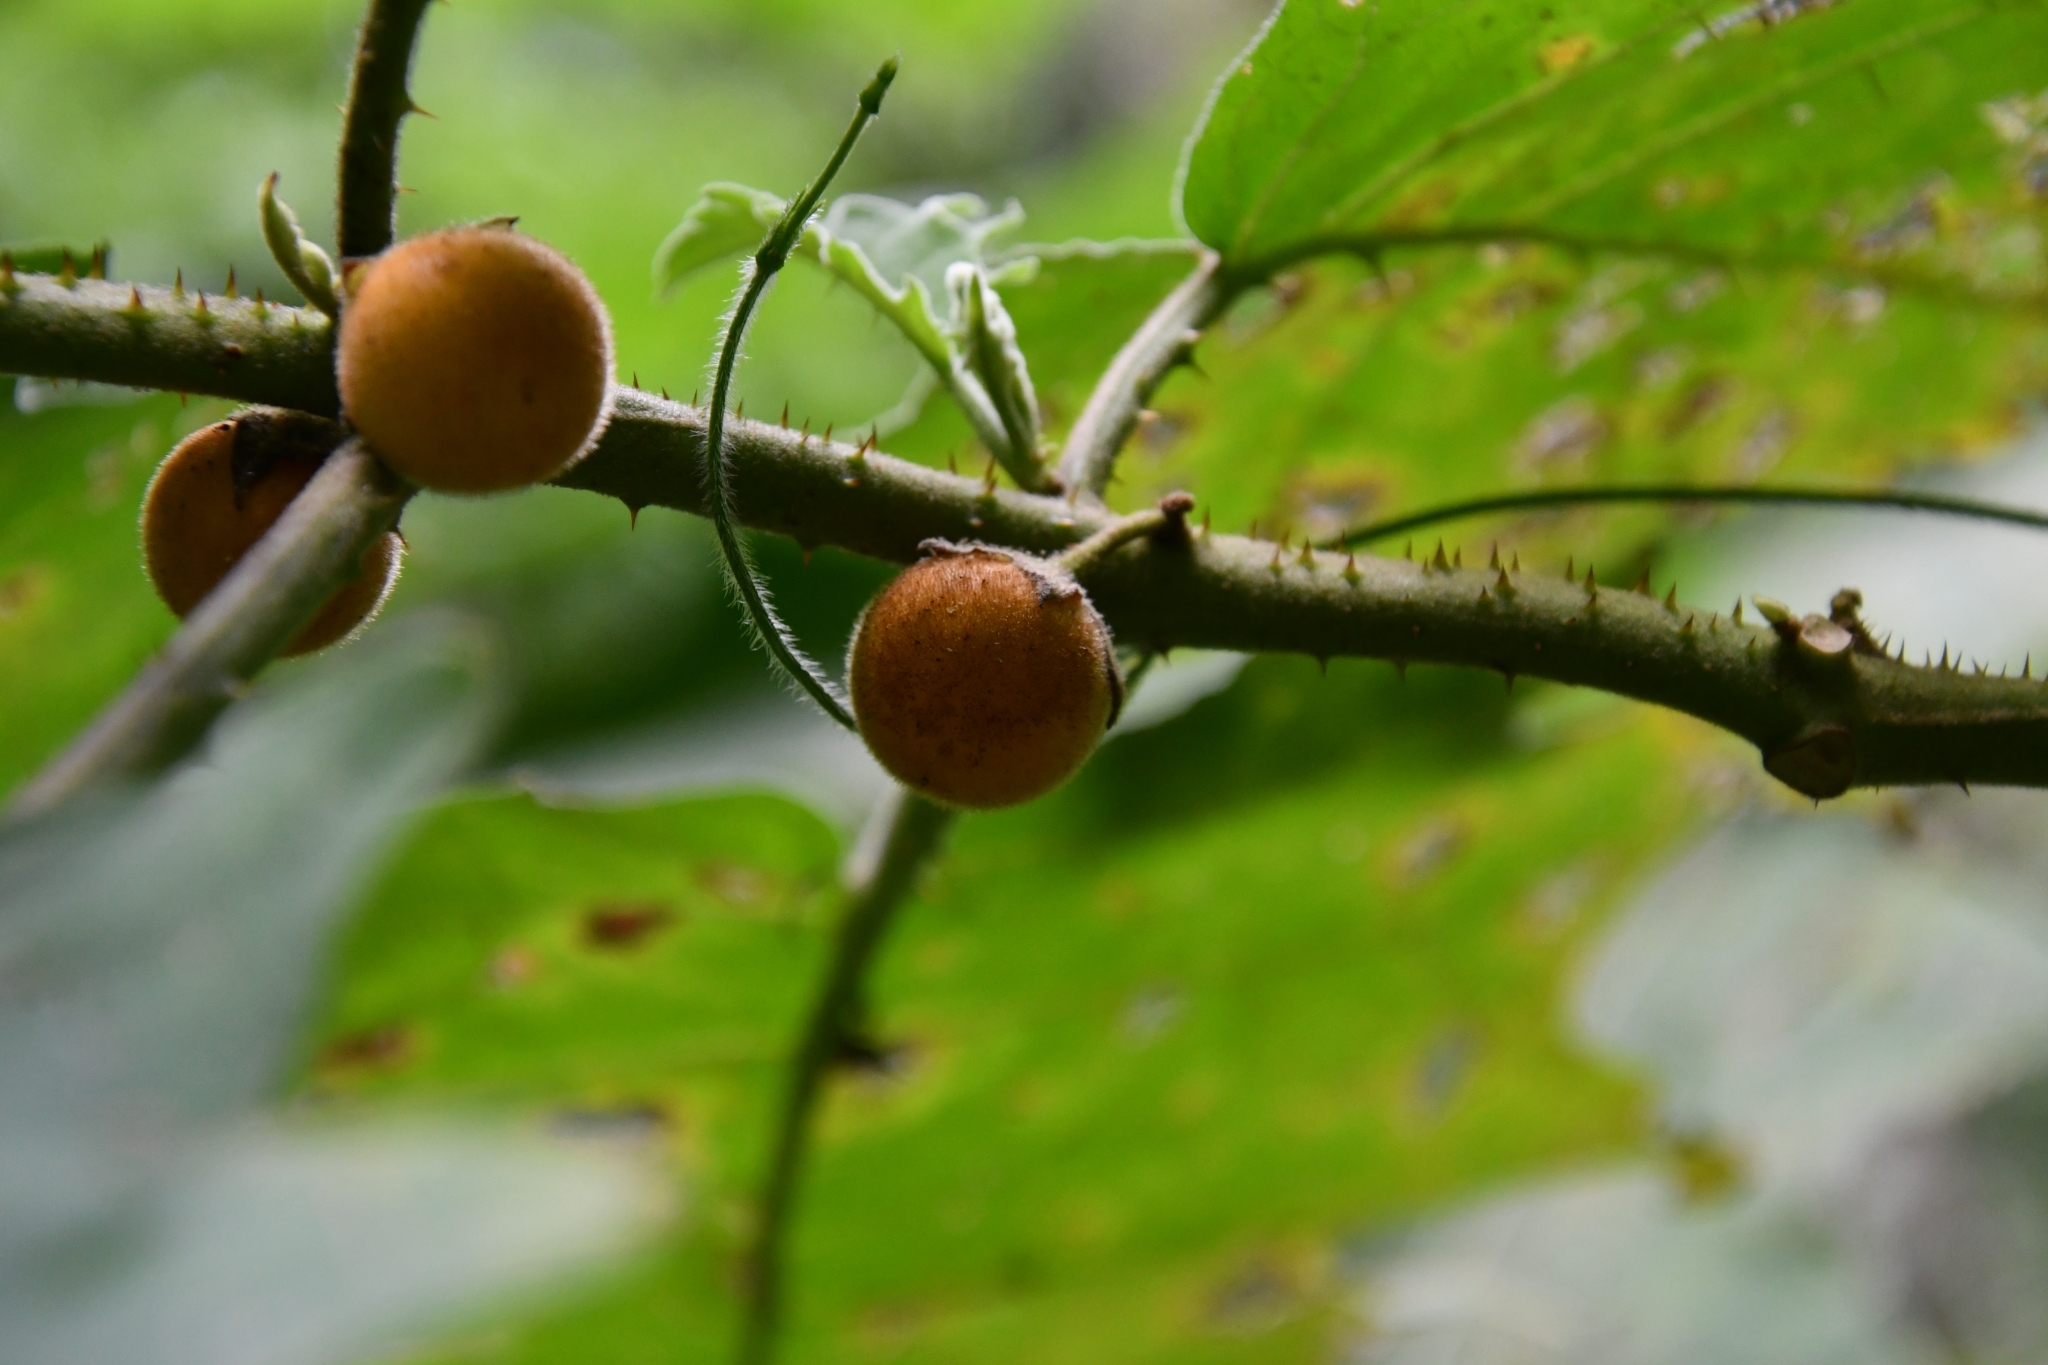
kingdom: Plantae
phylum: Tracheophyta
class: Magnoliopsida
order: Solanales
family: Solanaceae
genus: Solanum
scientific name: Solanum lasiocarpum
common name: Indian nightshade
